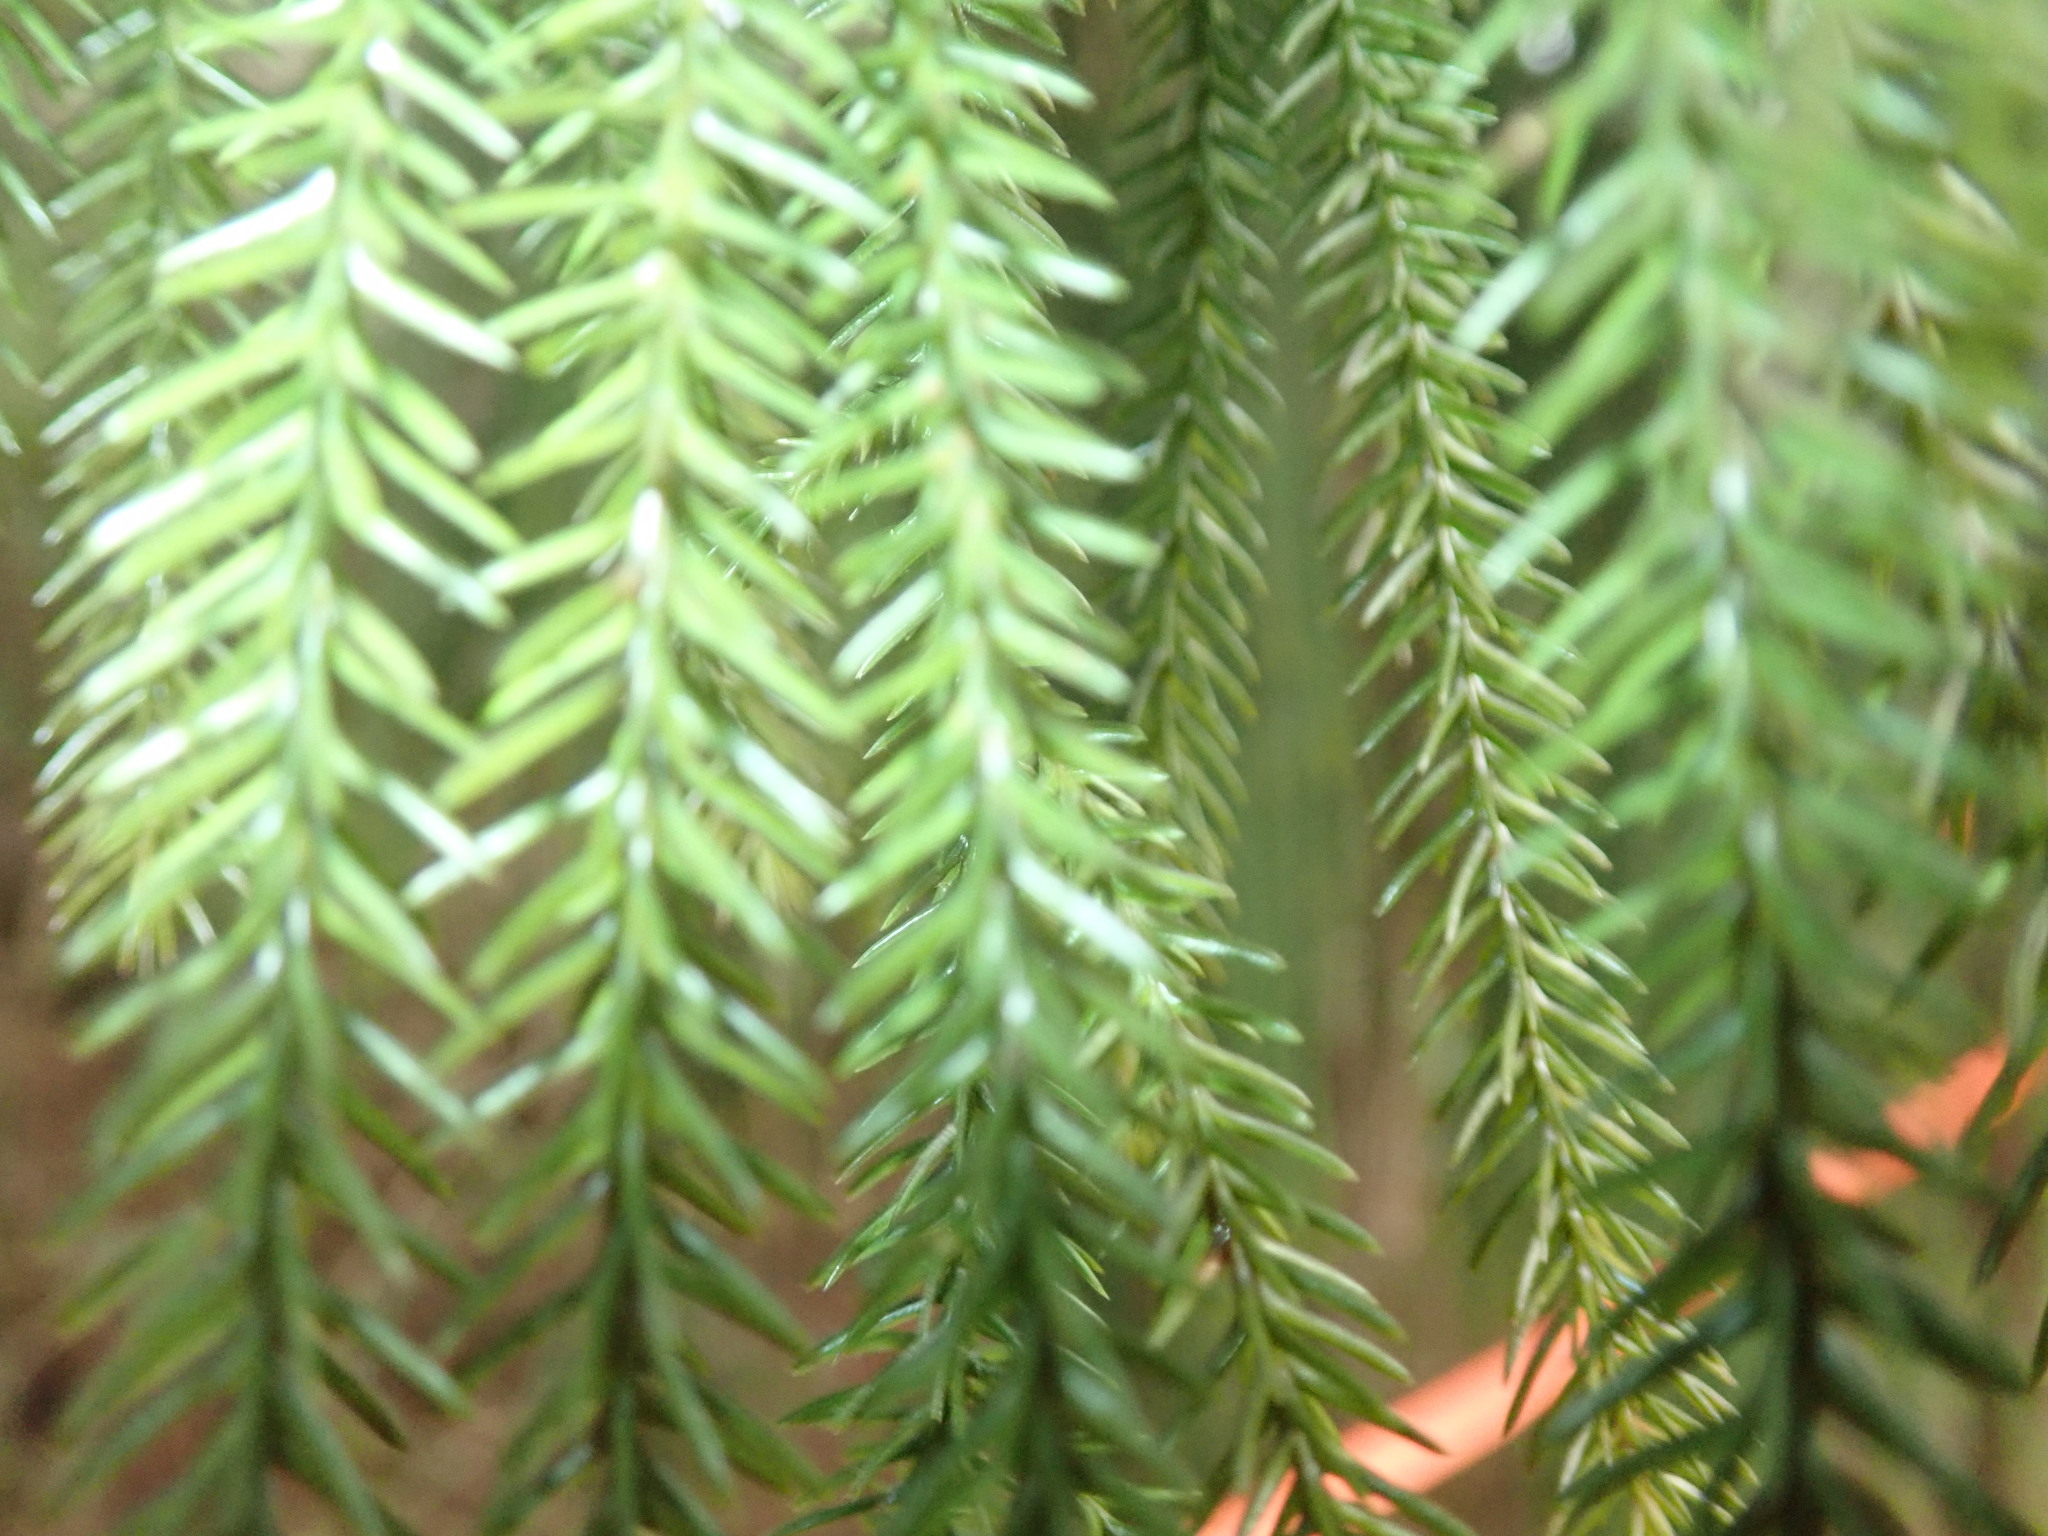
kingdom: Plantae
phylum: Tracheophyta
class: Pinopsida
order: Pinales
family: Podocarpaceae
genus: Dacrydium
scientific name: Dacrydium cupressinum
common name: Red pine
